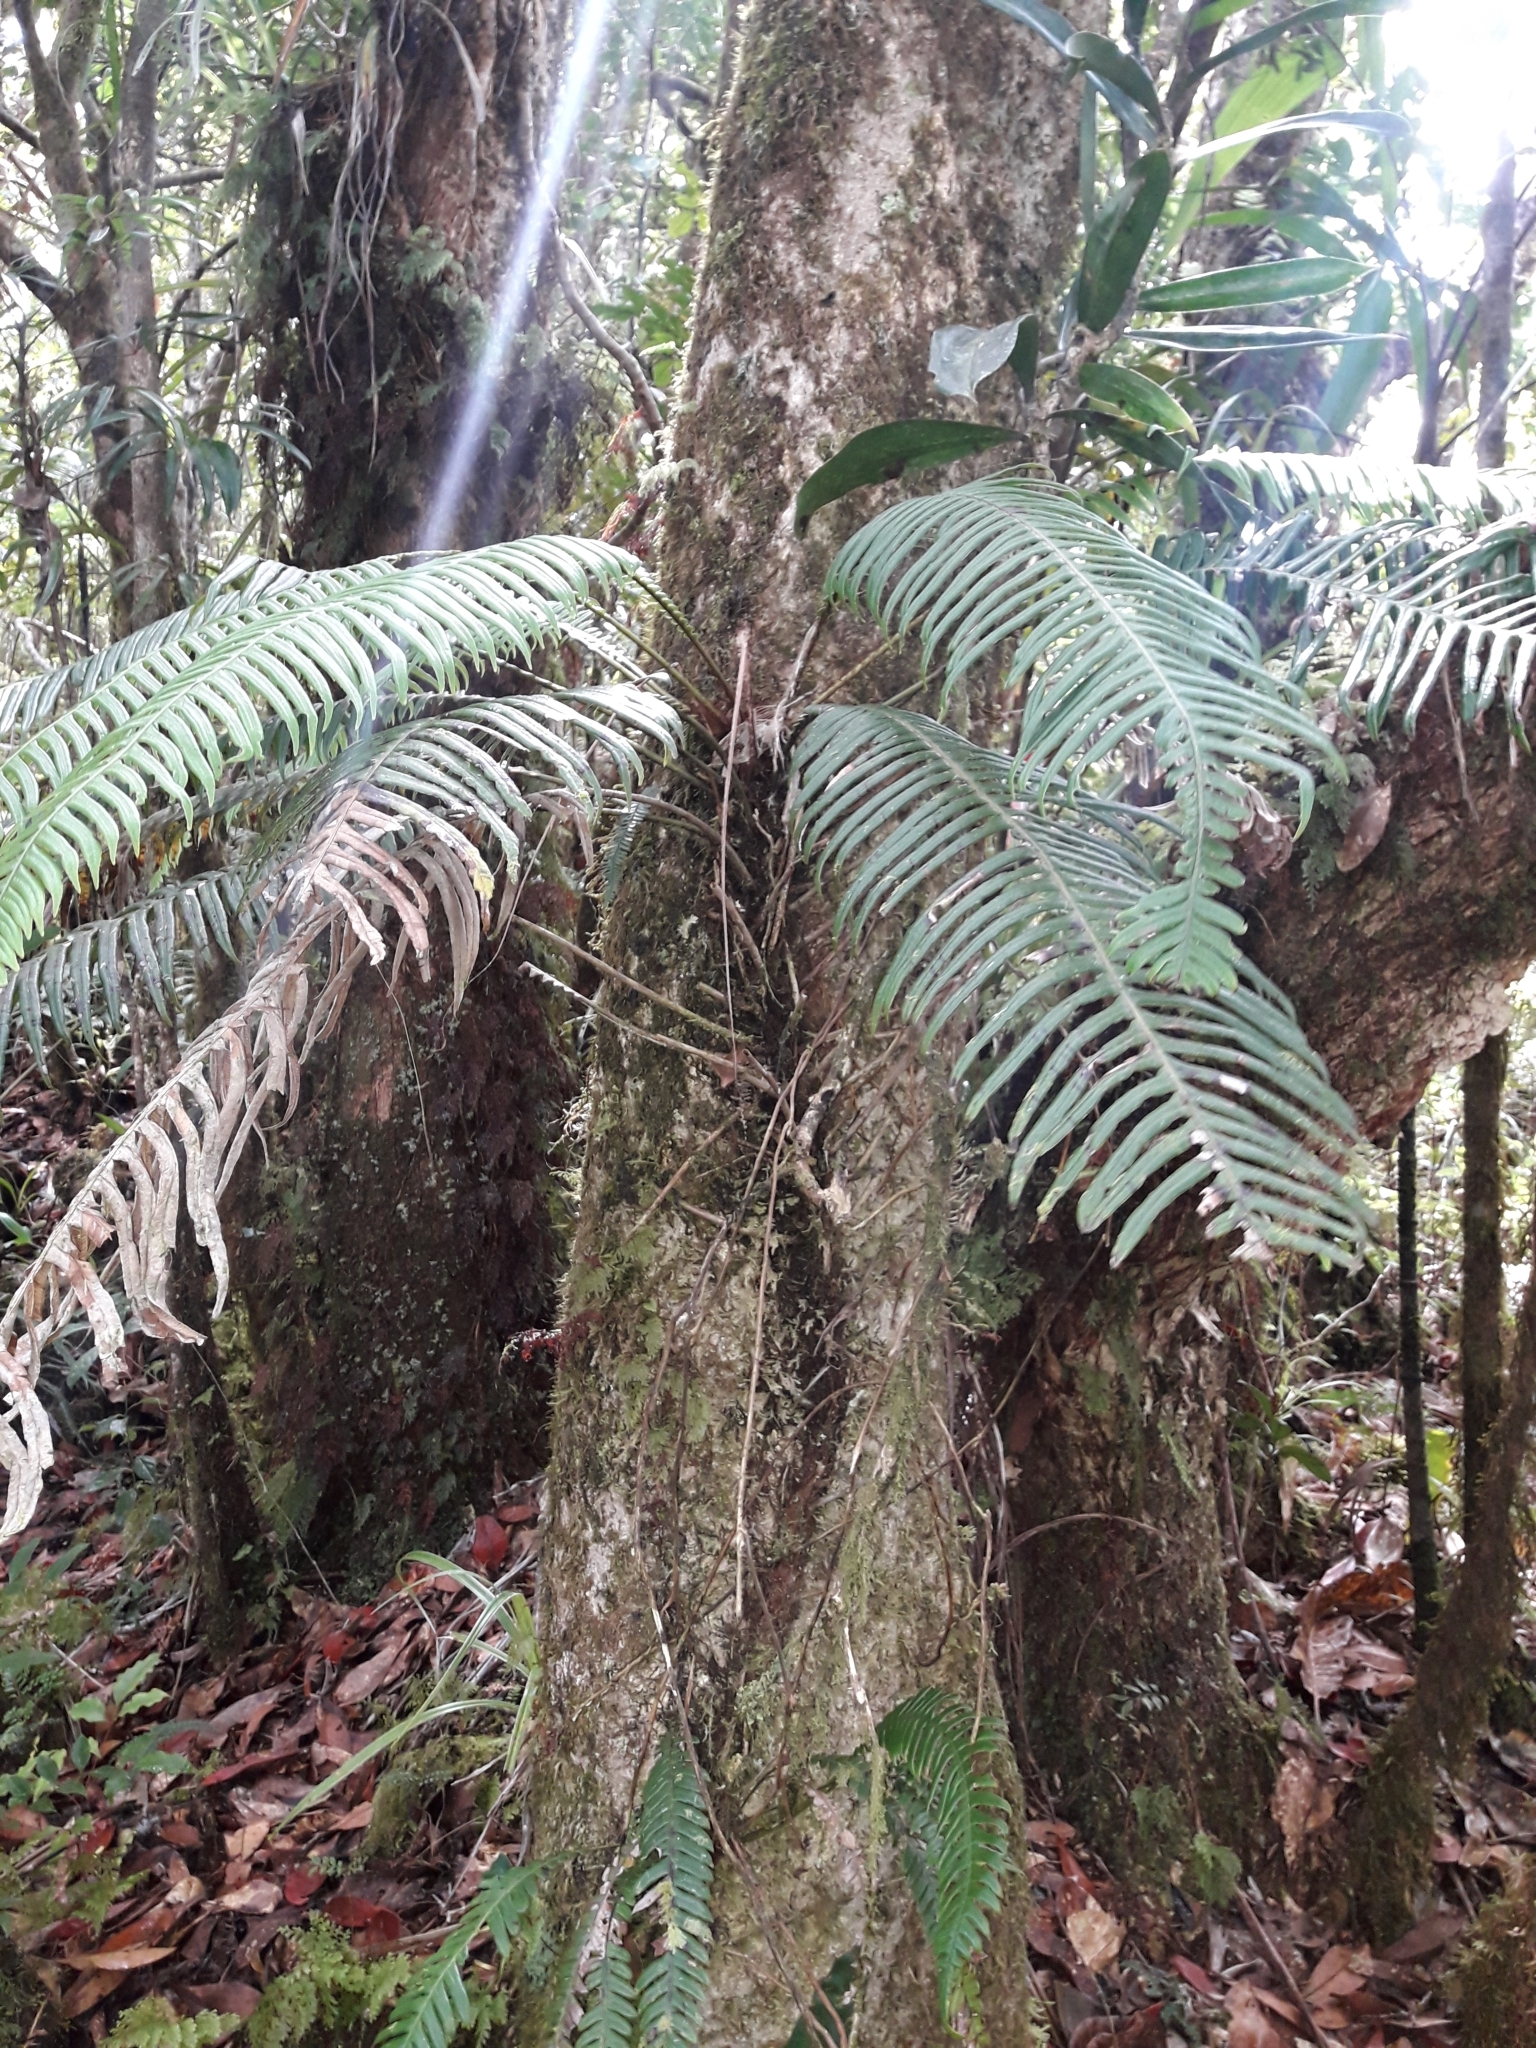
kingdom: Plantae
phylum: Tracheophyta
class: Polypodiopsida
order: Polypodiales
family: Blechnaceae
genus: Lomaridium
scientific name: Lomaridium contiguum
